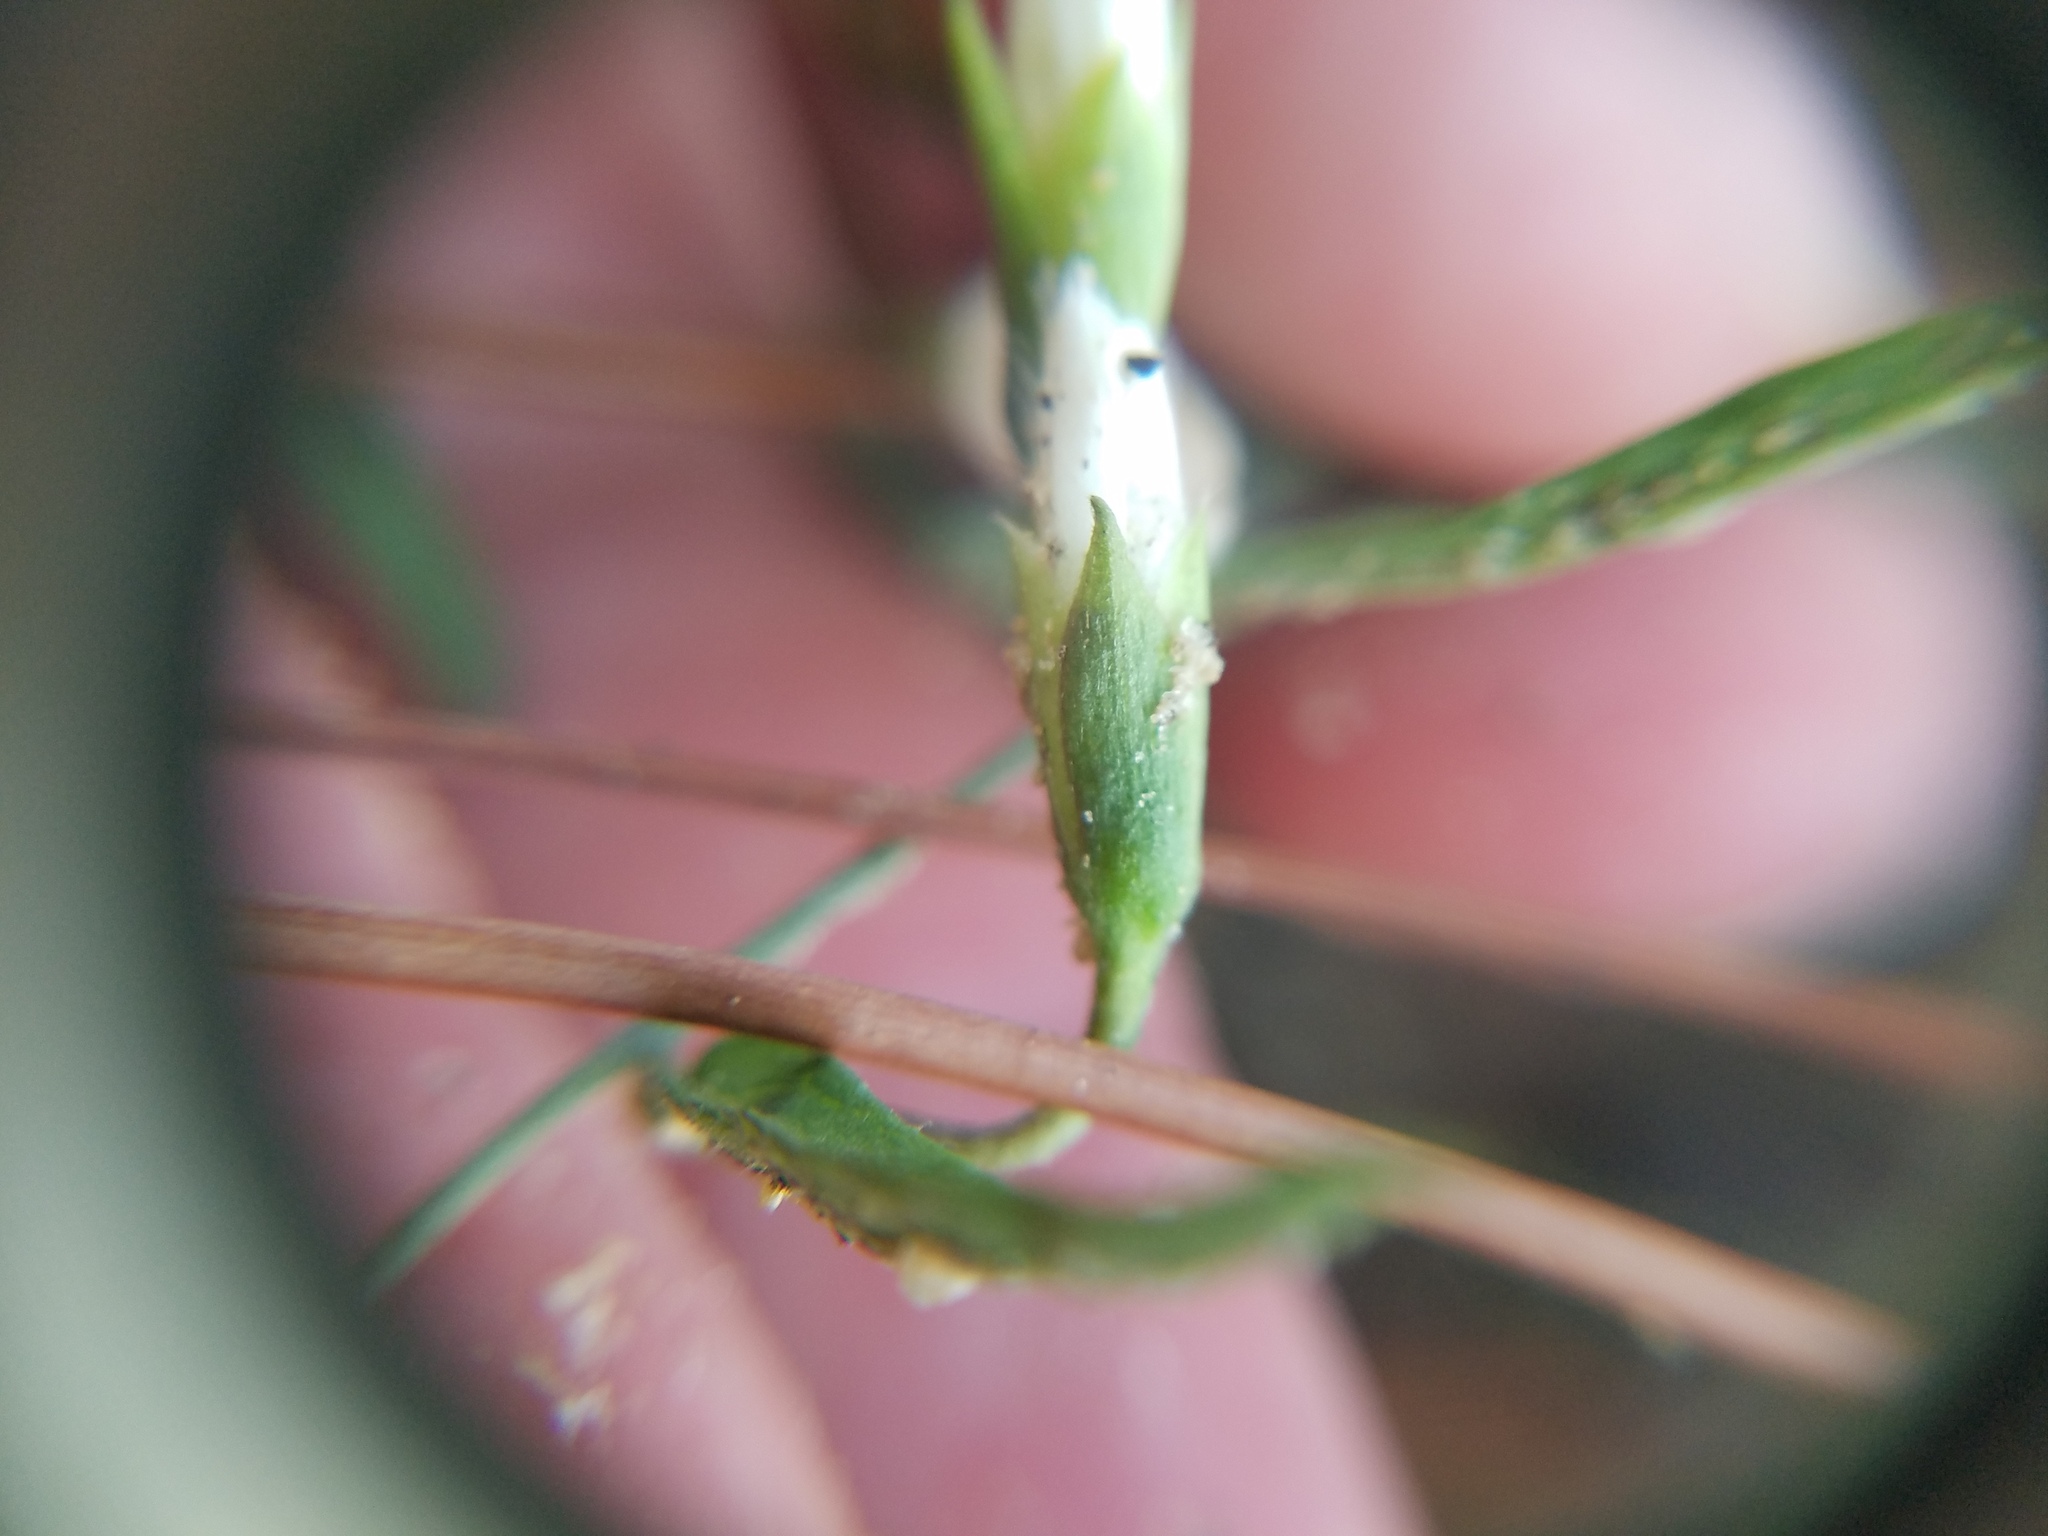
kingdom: Plantae
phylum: Tracheophyta
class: Magnoliopsida
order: Solanales
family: Convolvulaceae
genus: Stylisma
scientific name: Stylisma patens
